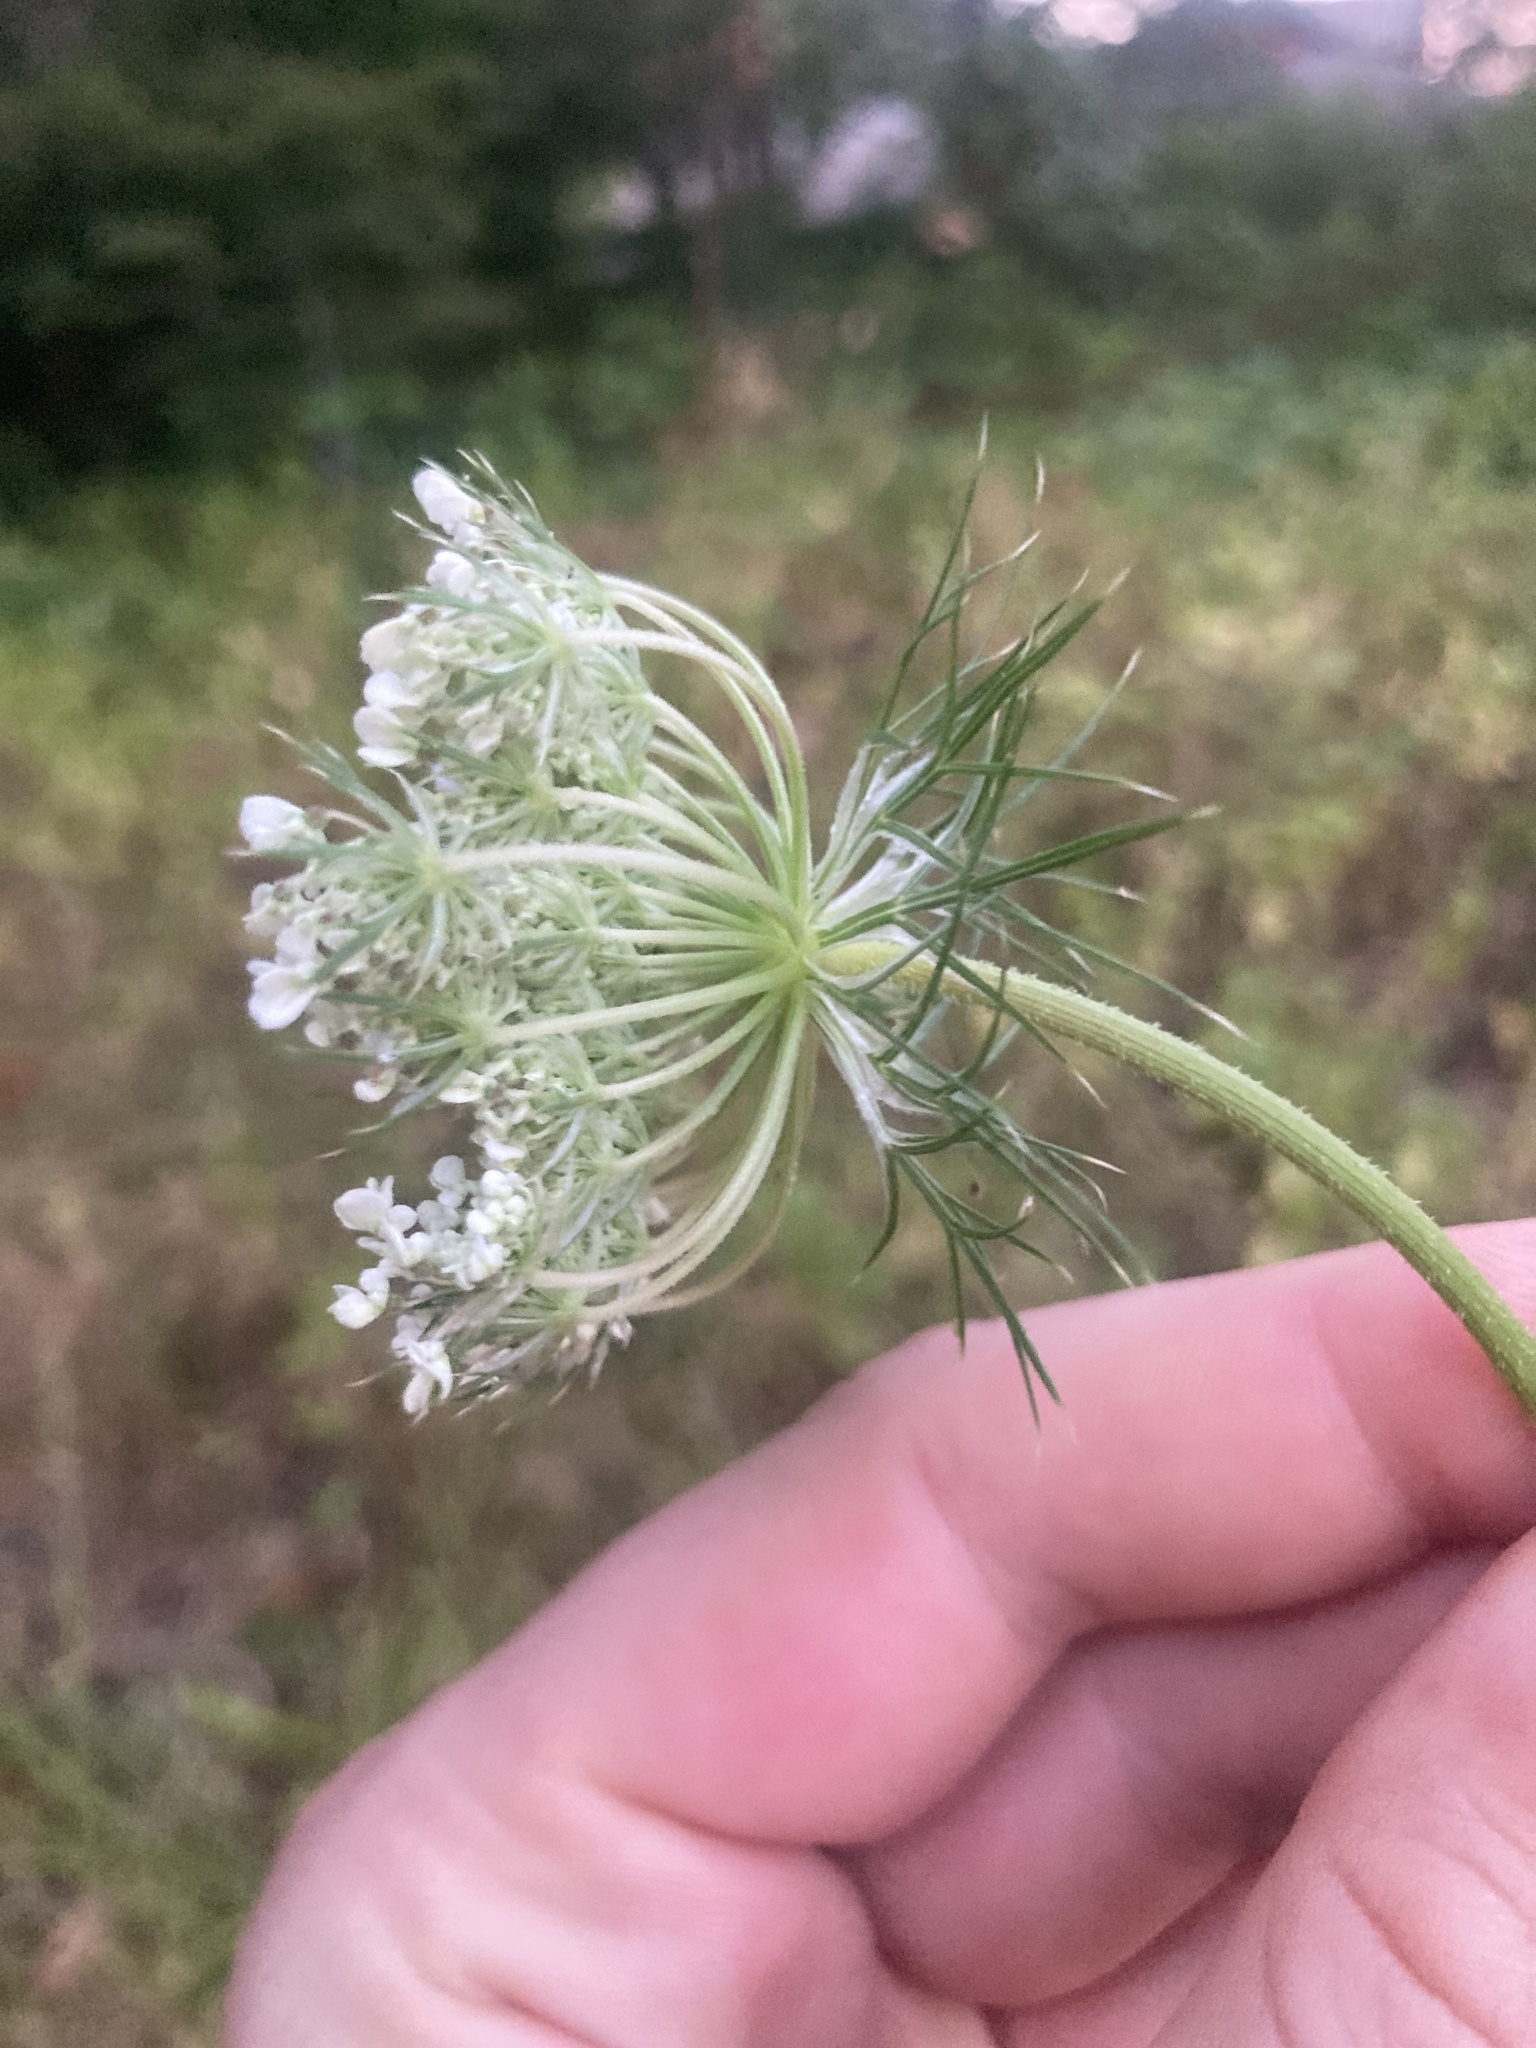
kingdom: Plantae
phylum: Tracheophyta
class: Magnoliopsida
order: Apiales
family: Apiaceae
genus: Daucus
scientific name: Daucus carota
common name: Wild carrot
